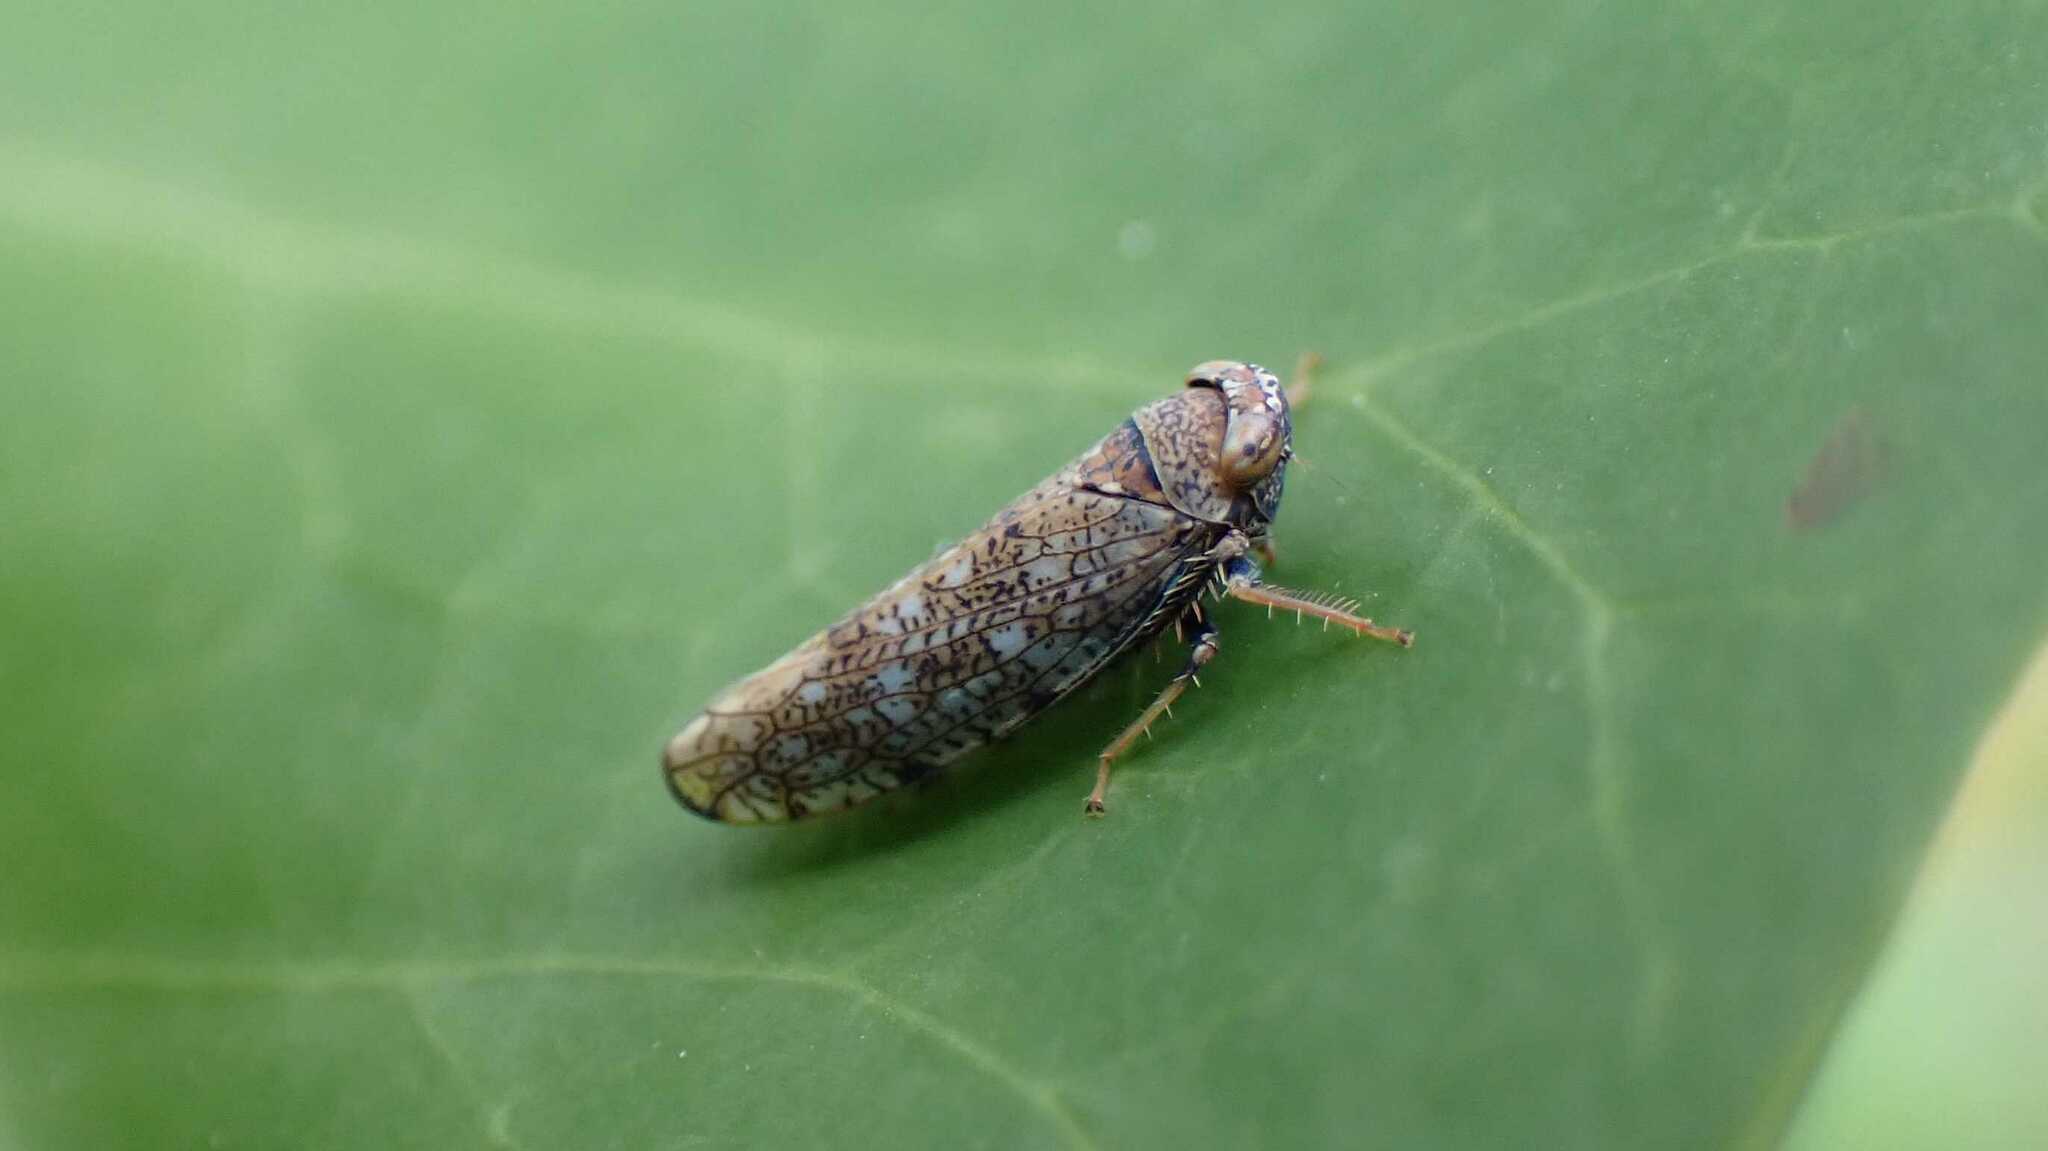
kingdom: Animalia
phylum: Arthropoda
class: Insecta
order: Hemiptera
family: Cicadellidae
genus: Orientus
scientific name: Orientus ishidae
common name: Japanese leafhopper
